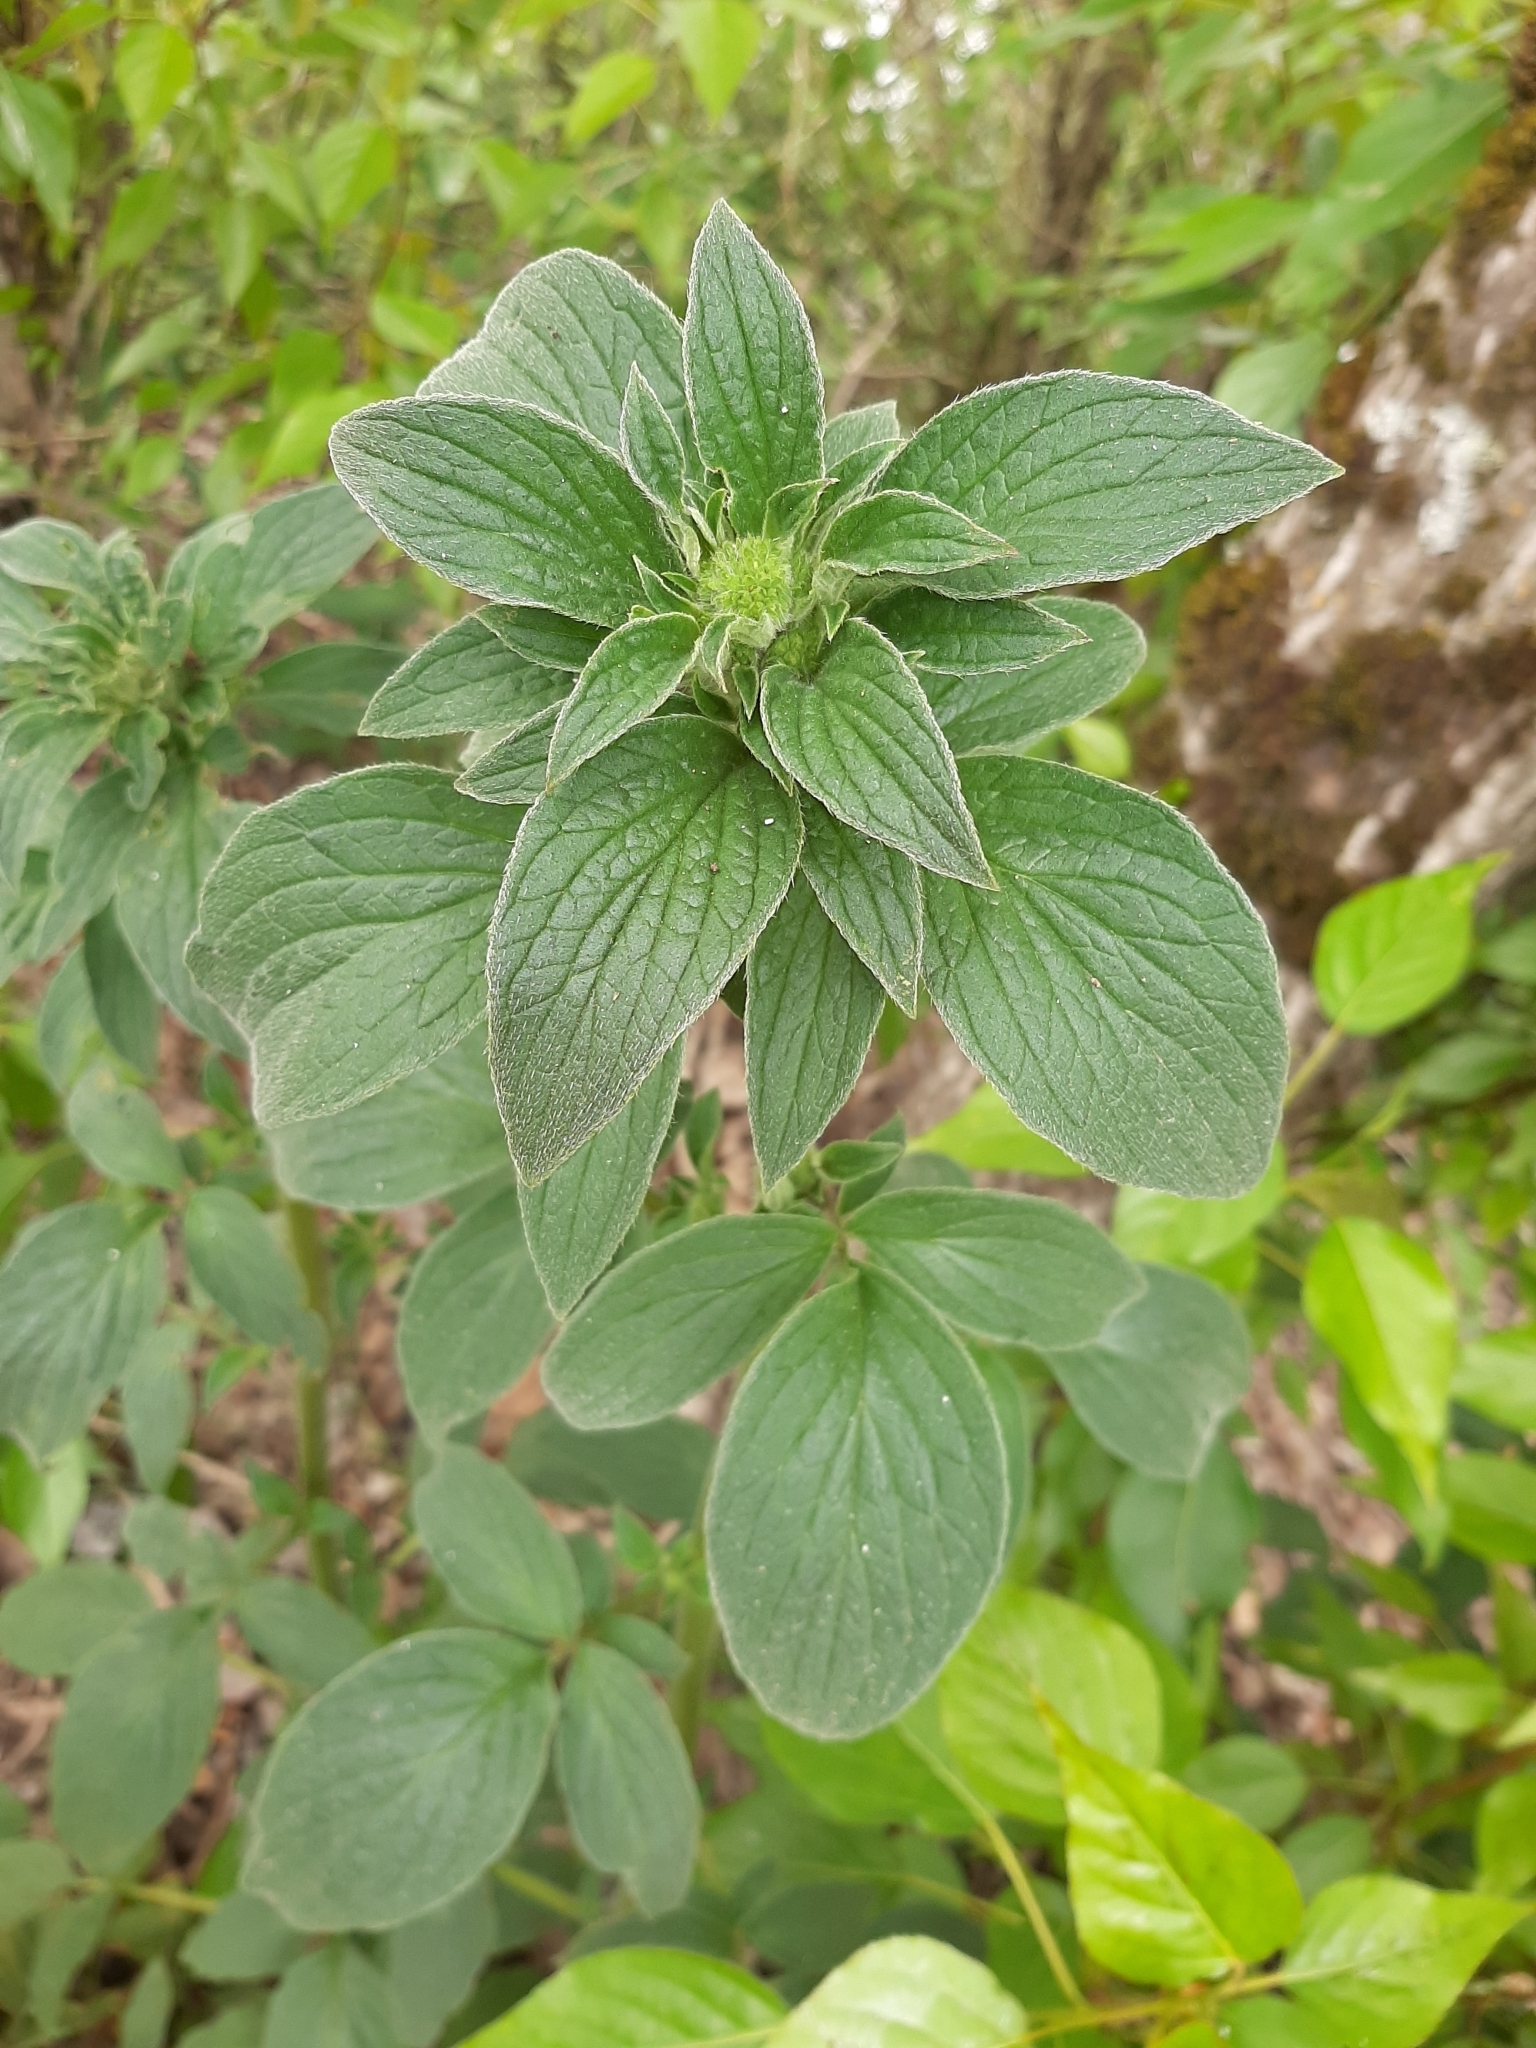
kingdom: Plantae
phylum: Tracheophyta
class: Magnoliopsida
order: Boraginales
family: Hydrophyllaceae
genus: Phacelia
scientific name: Phacelia nemoralis
